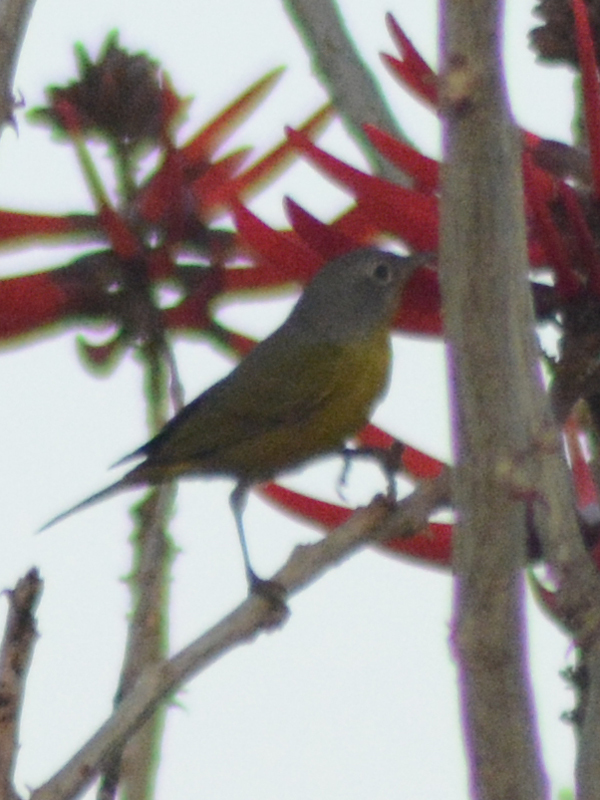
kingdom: Animalia
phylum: Chordata
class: Aves
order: Passeriformes
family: Parulidae
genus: Leiothlypis
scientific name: Leiothlypis ruficapilla
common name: Nashville warbler
